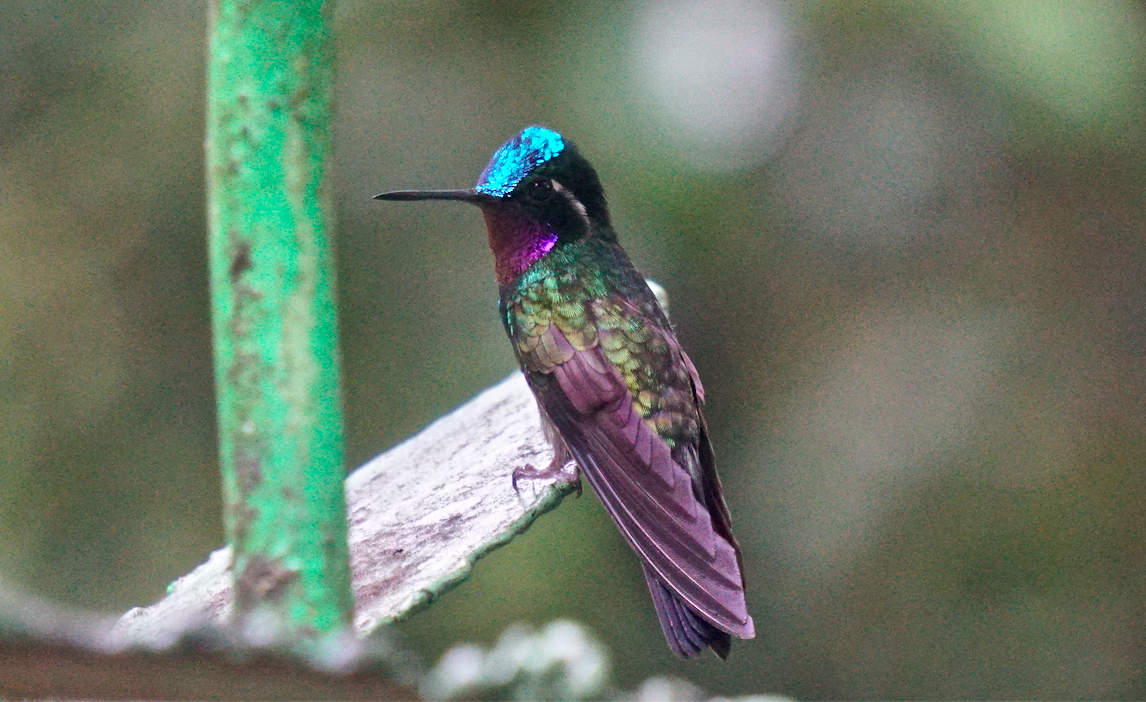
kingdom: Animalia
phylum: Chordata
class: Aves
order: Apodiformes
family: Trochilidae
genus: Lampornis
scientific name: Lampornis calolaemus
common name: Purple-throated mountain-gem
